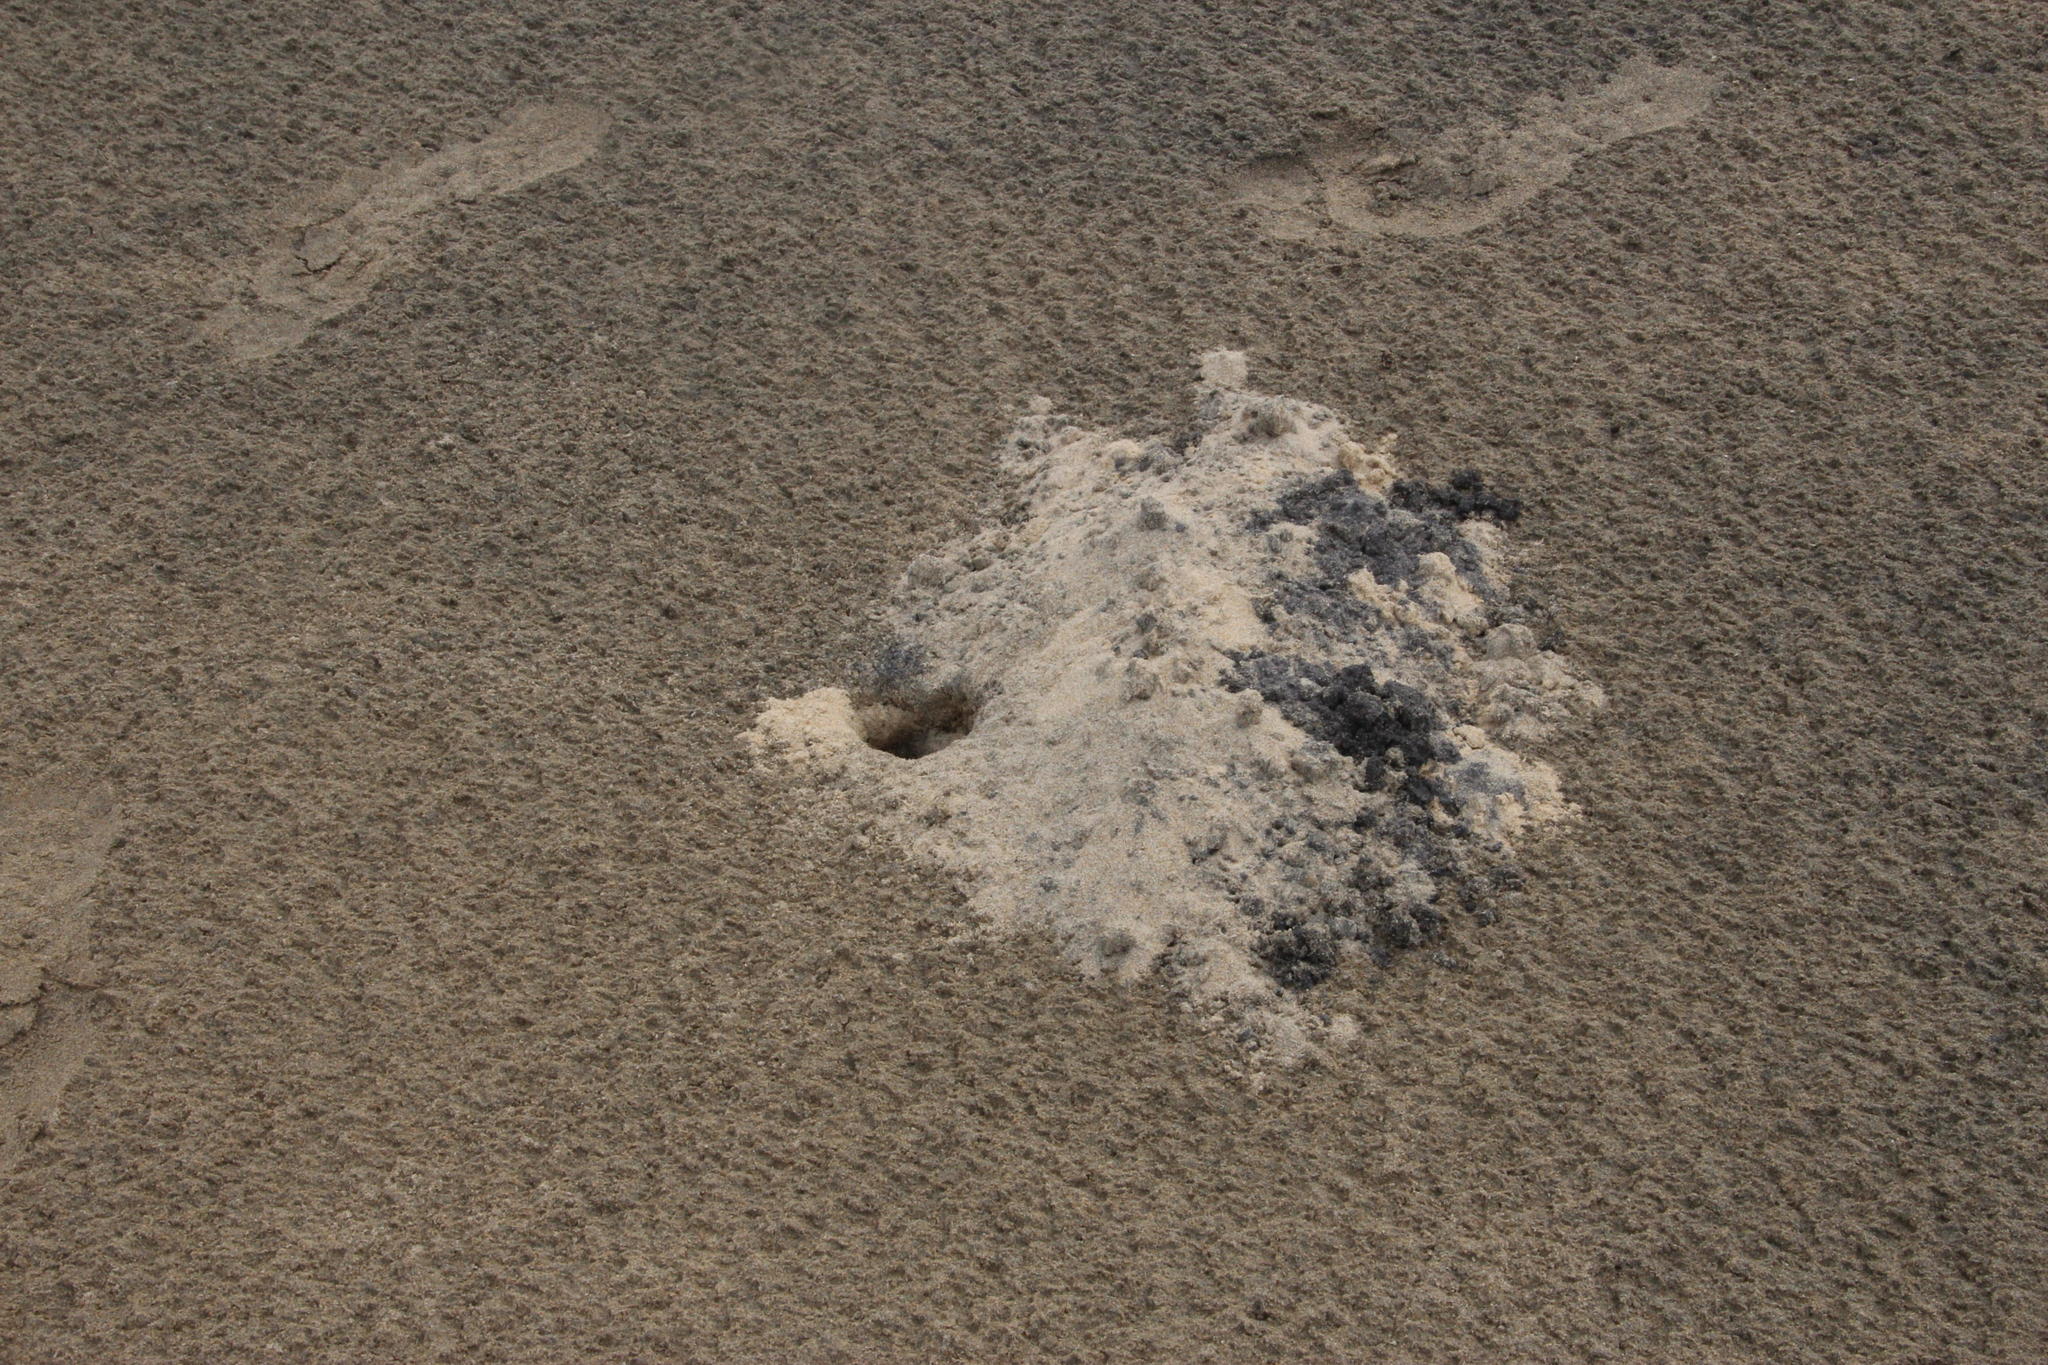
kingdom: Animalia
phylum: Arthropoda
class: Malacostraca
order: Decapoda
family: Ocypodidae
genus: Ocypode
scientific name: Ocypode ryderi
